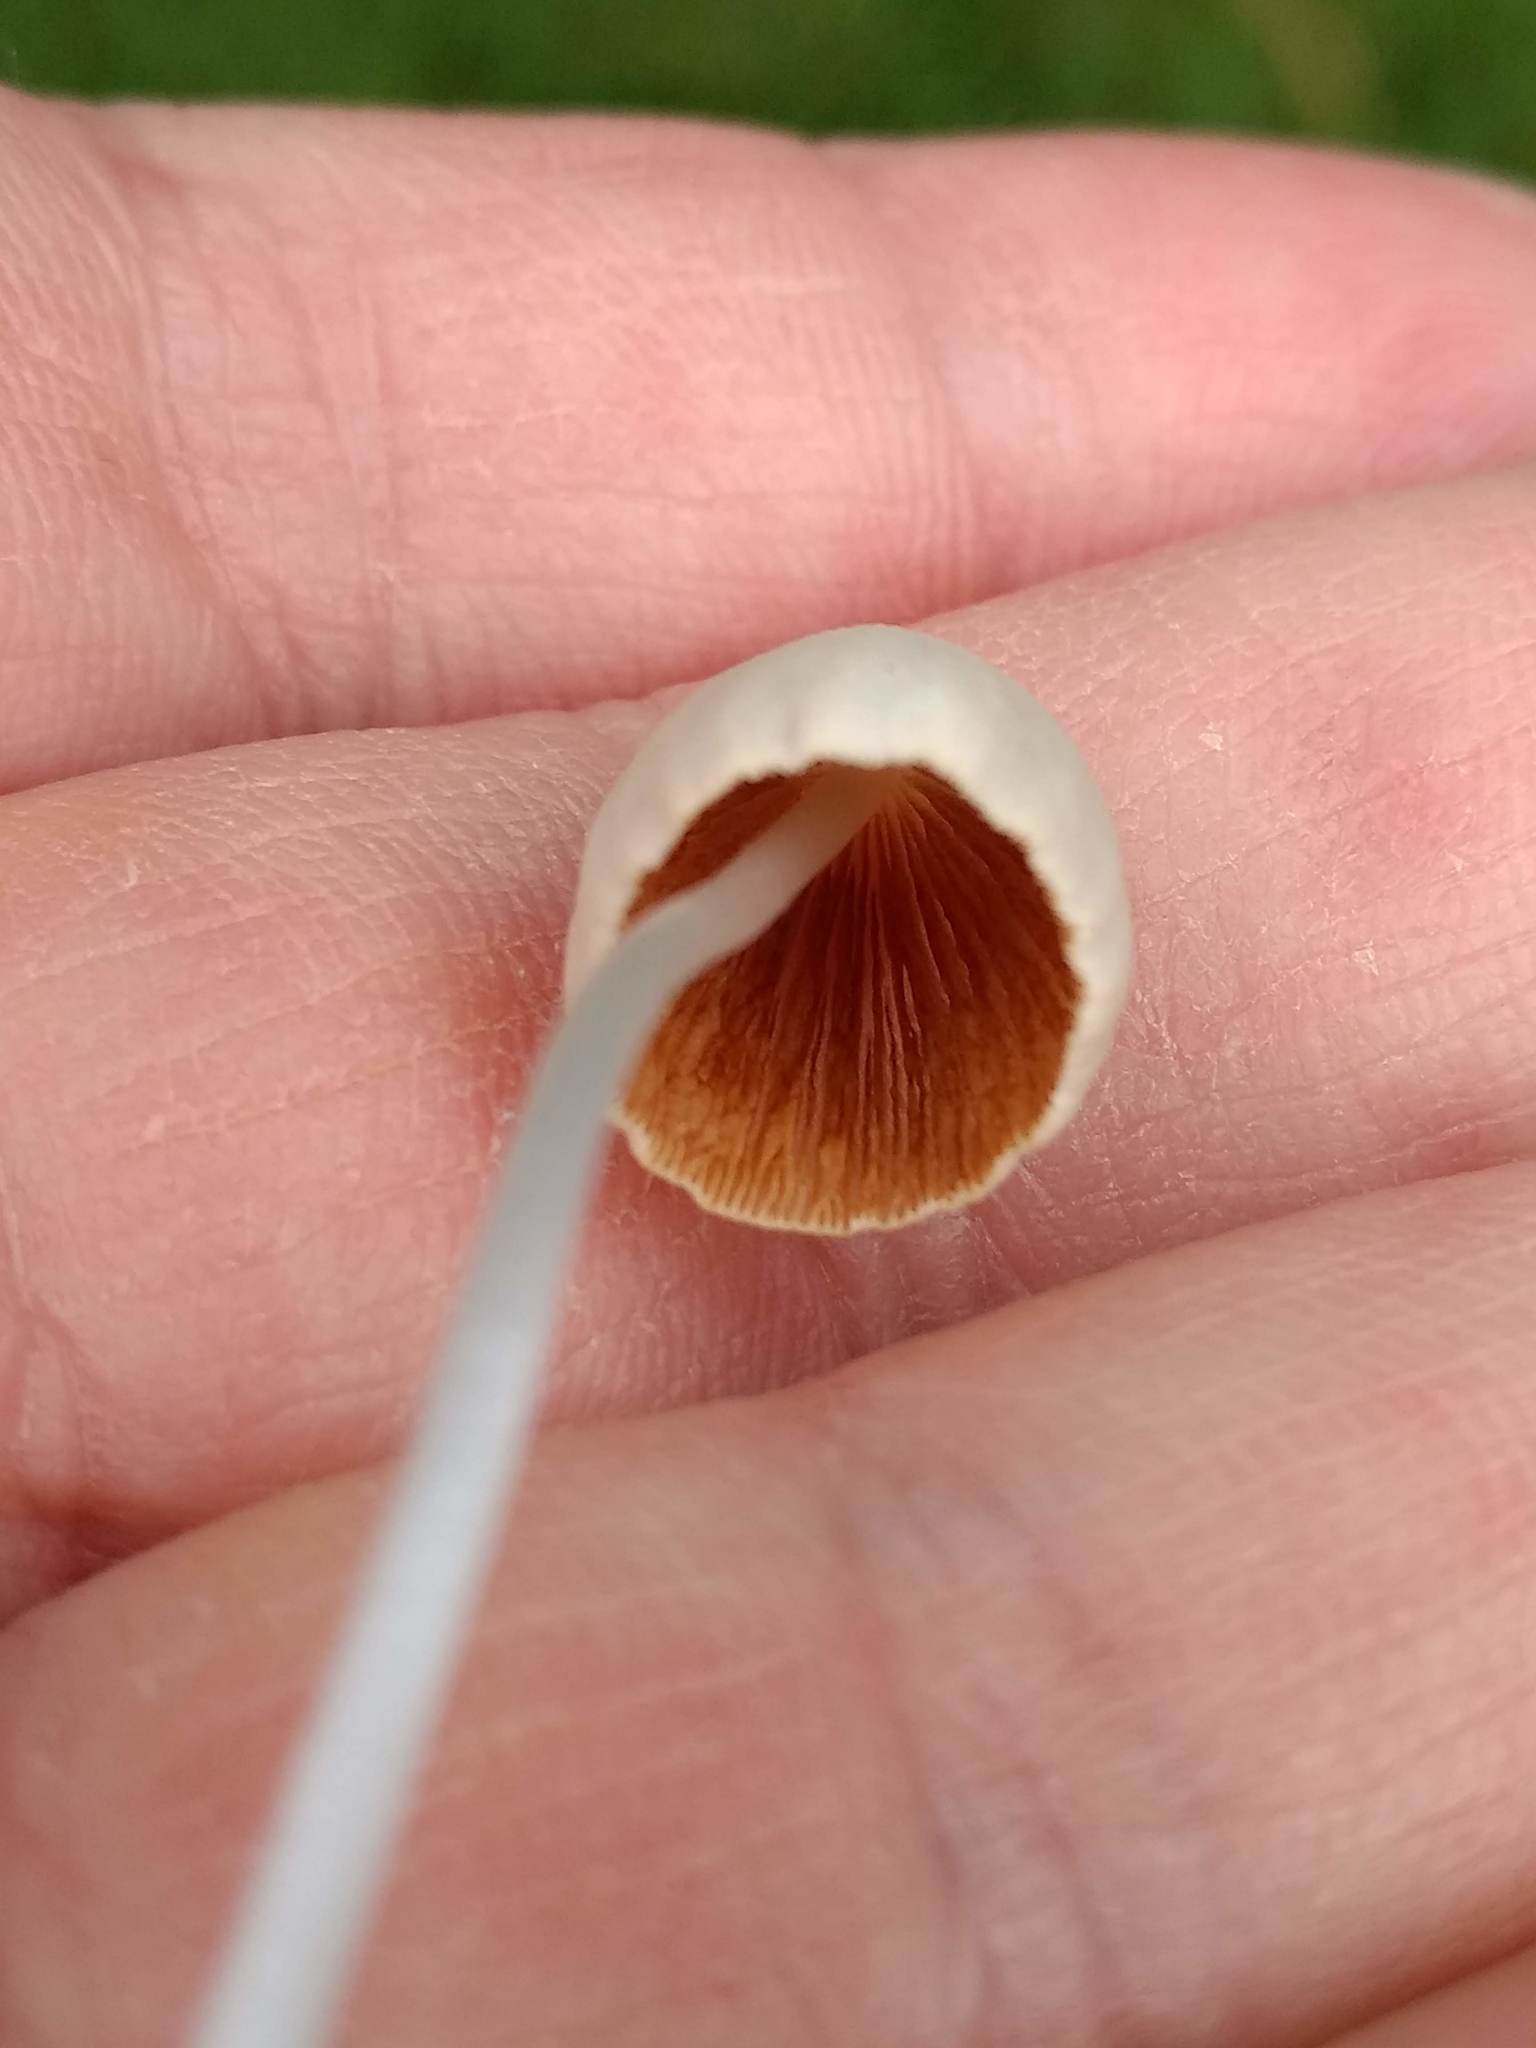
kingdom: Fungi
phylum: Basidiomycota
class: Agaricomycetes
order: Agaricales
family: Bolbitiaceae
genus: Conocybe
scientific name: Conocybe apala
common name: Milky conecap
